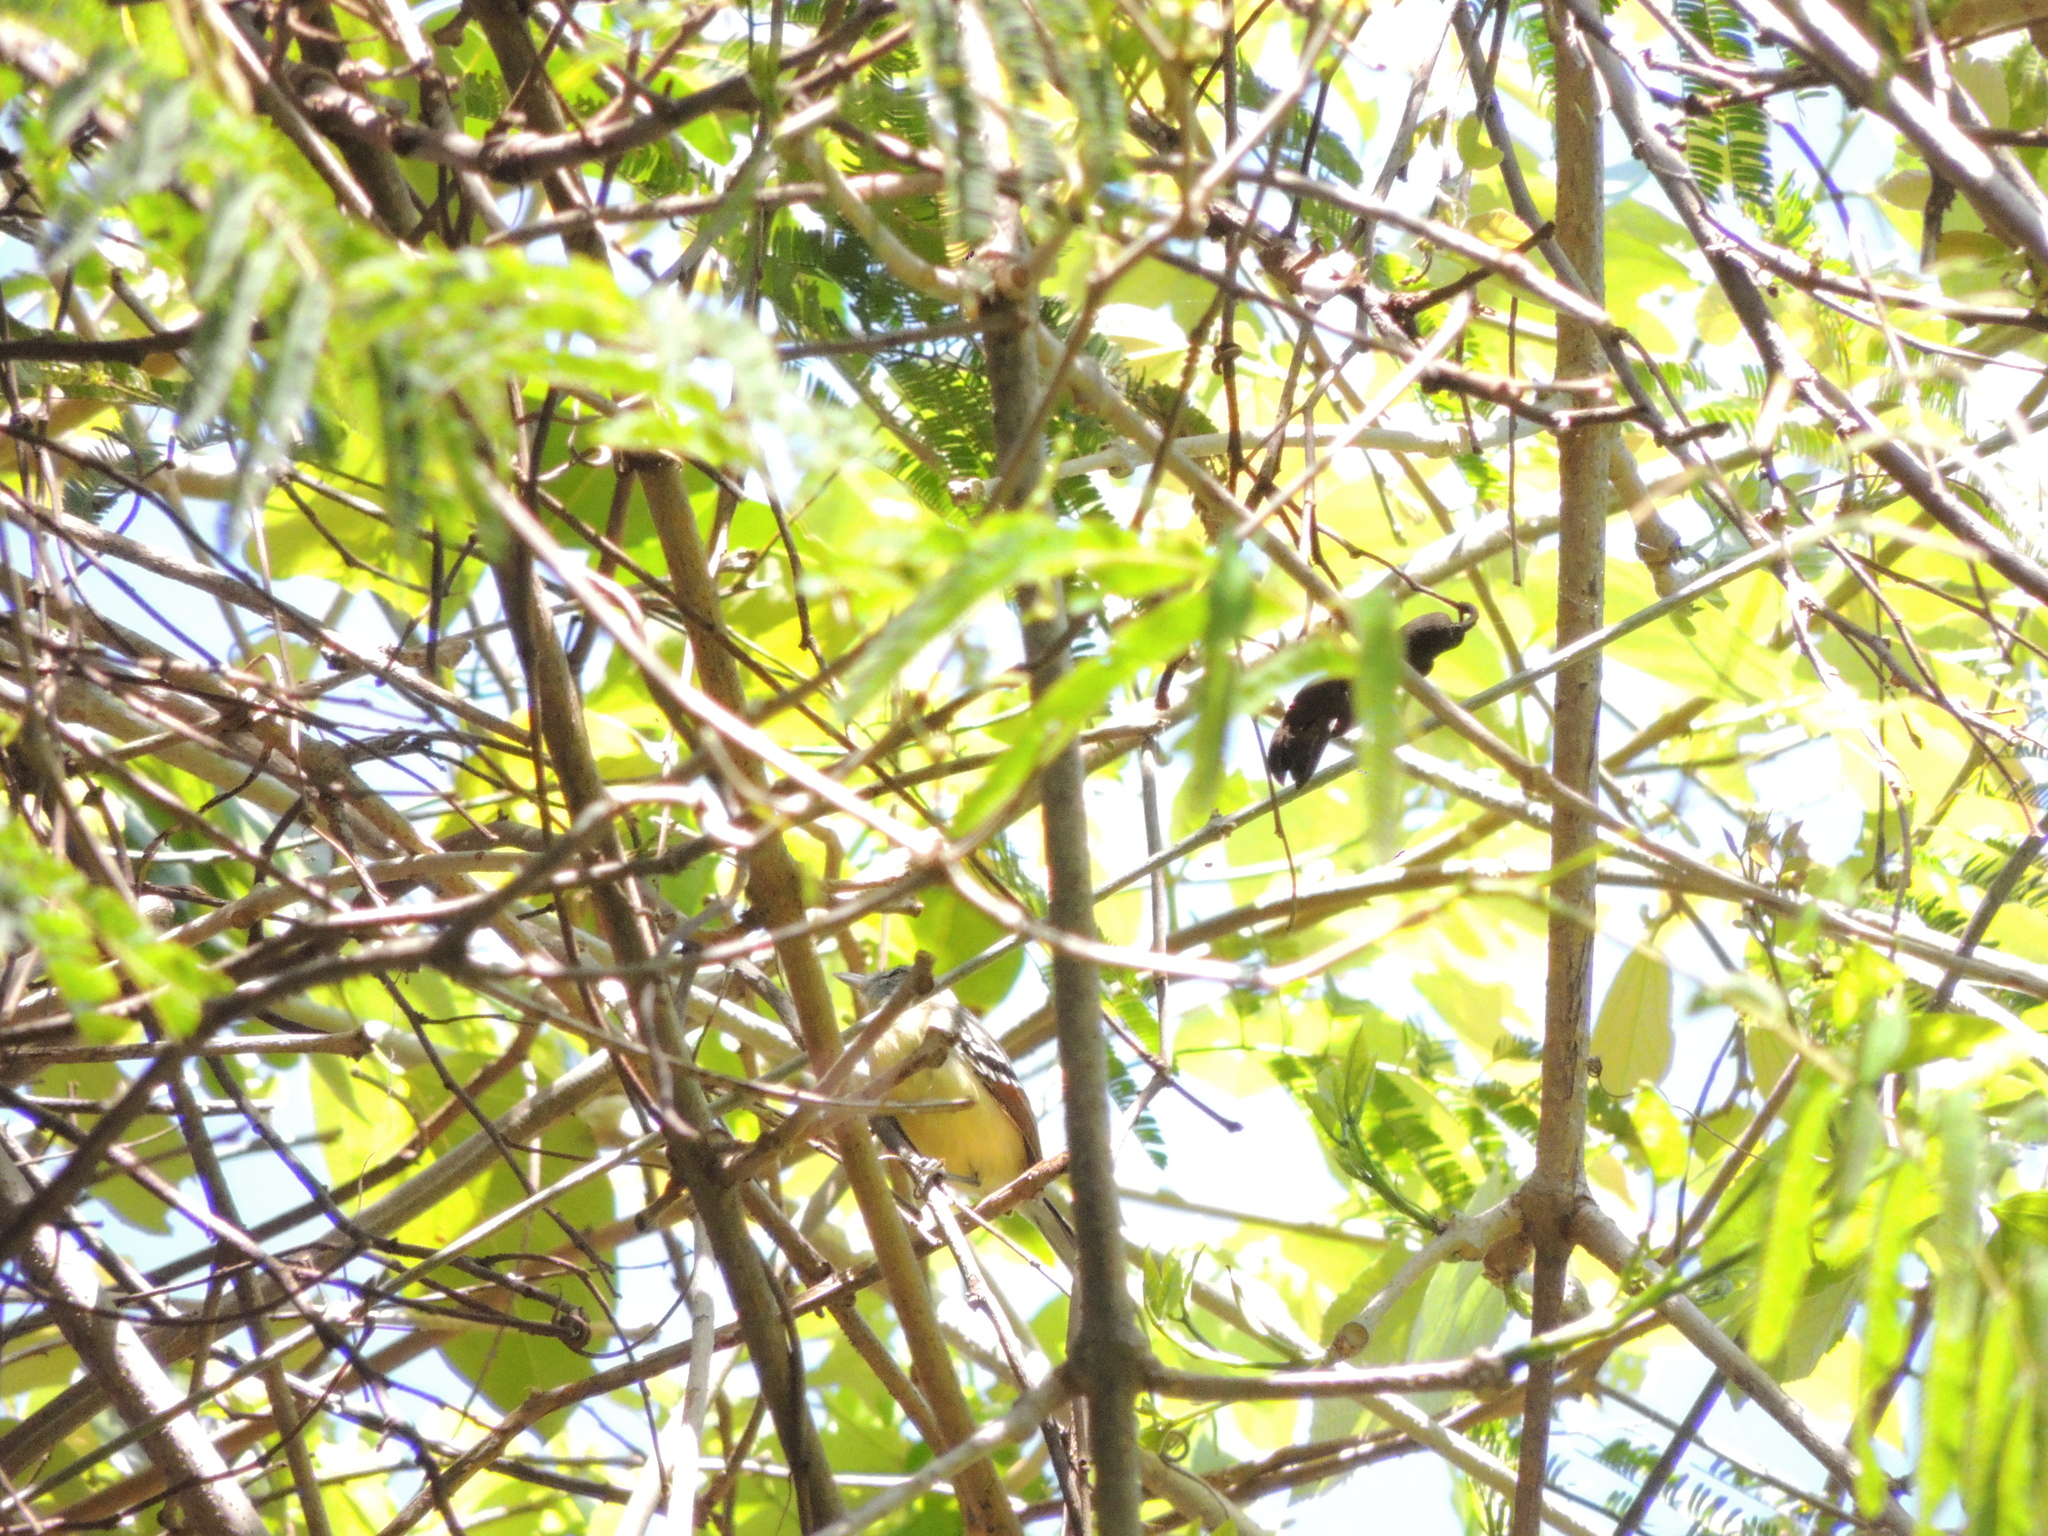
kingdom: Animalia
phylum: Chordata
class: Aves
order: Passeriformes
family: Thamnophilidae
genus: Herpsilochmus
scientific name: Herpsilochmus rufimarginatus
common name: Rufous-winged antwren
